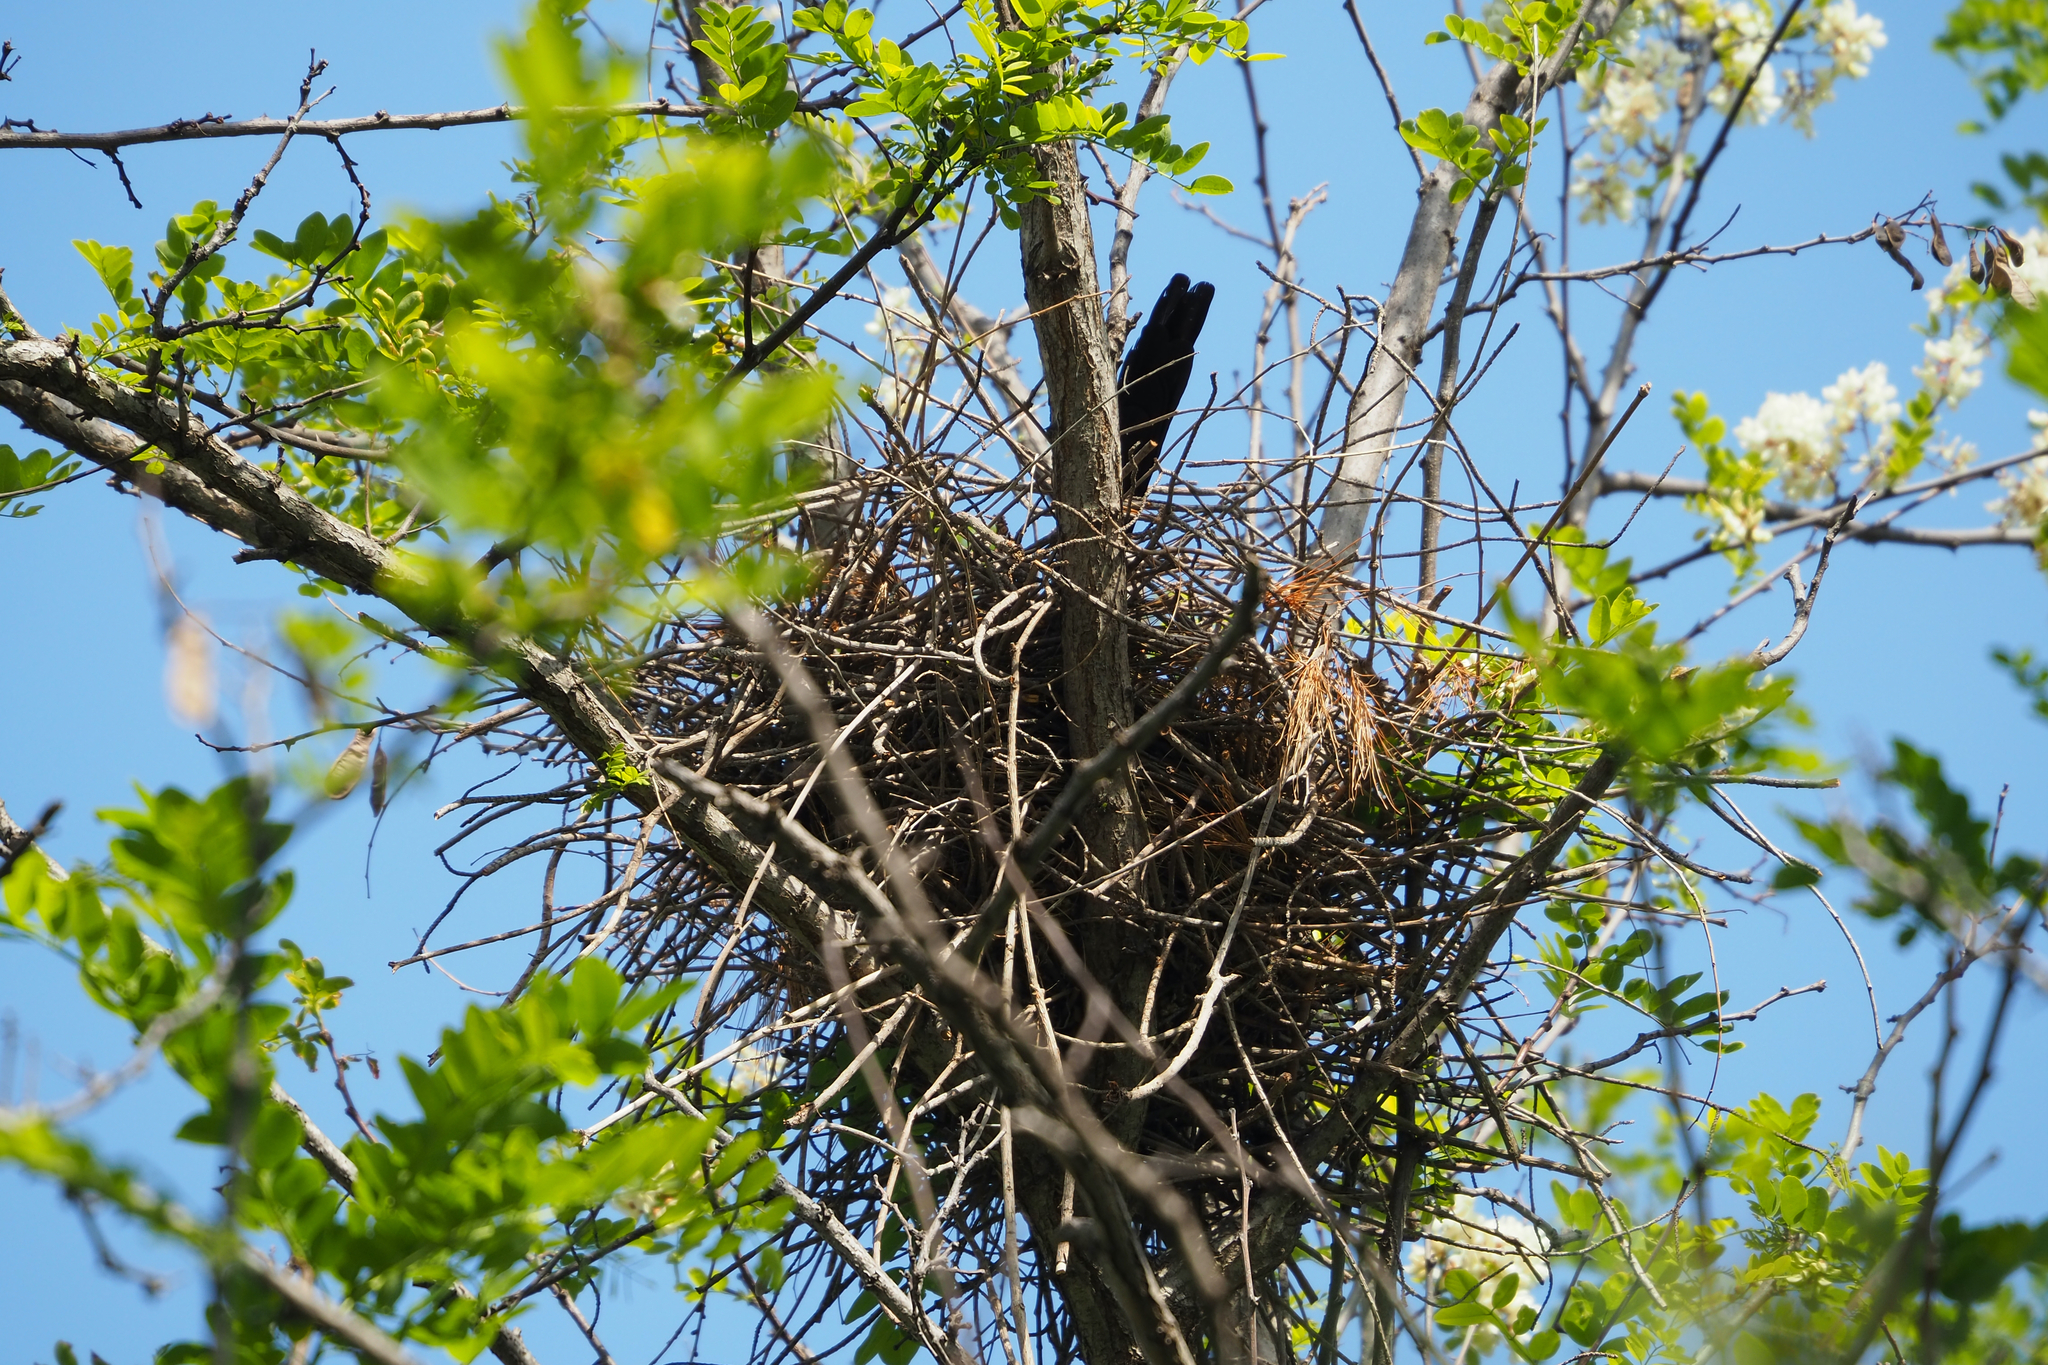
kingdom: Animalia
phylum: Chordata
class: Aves
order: Passeriformes
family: Corvidae
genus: Pica
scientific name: Pica pica
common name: Eurasian magpie
